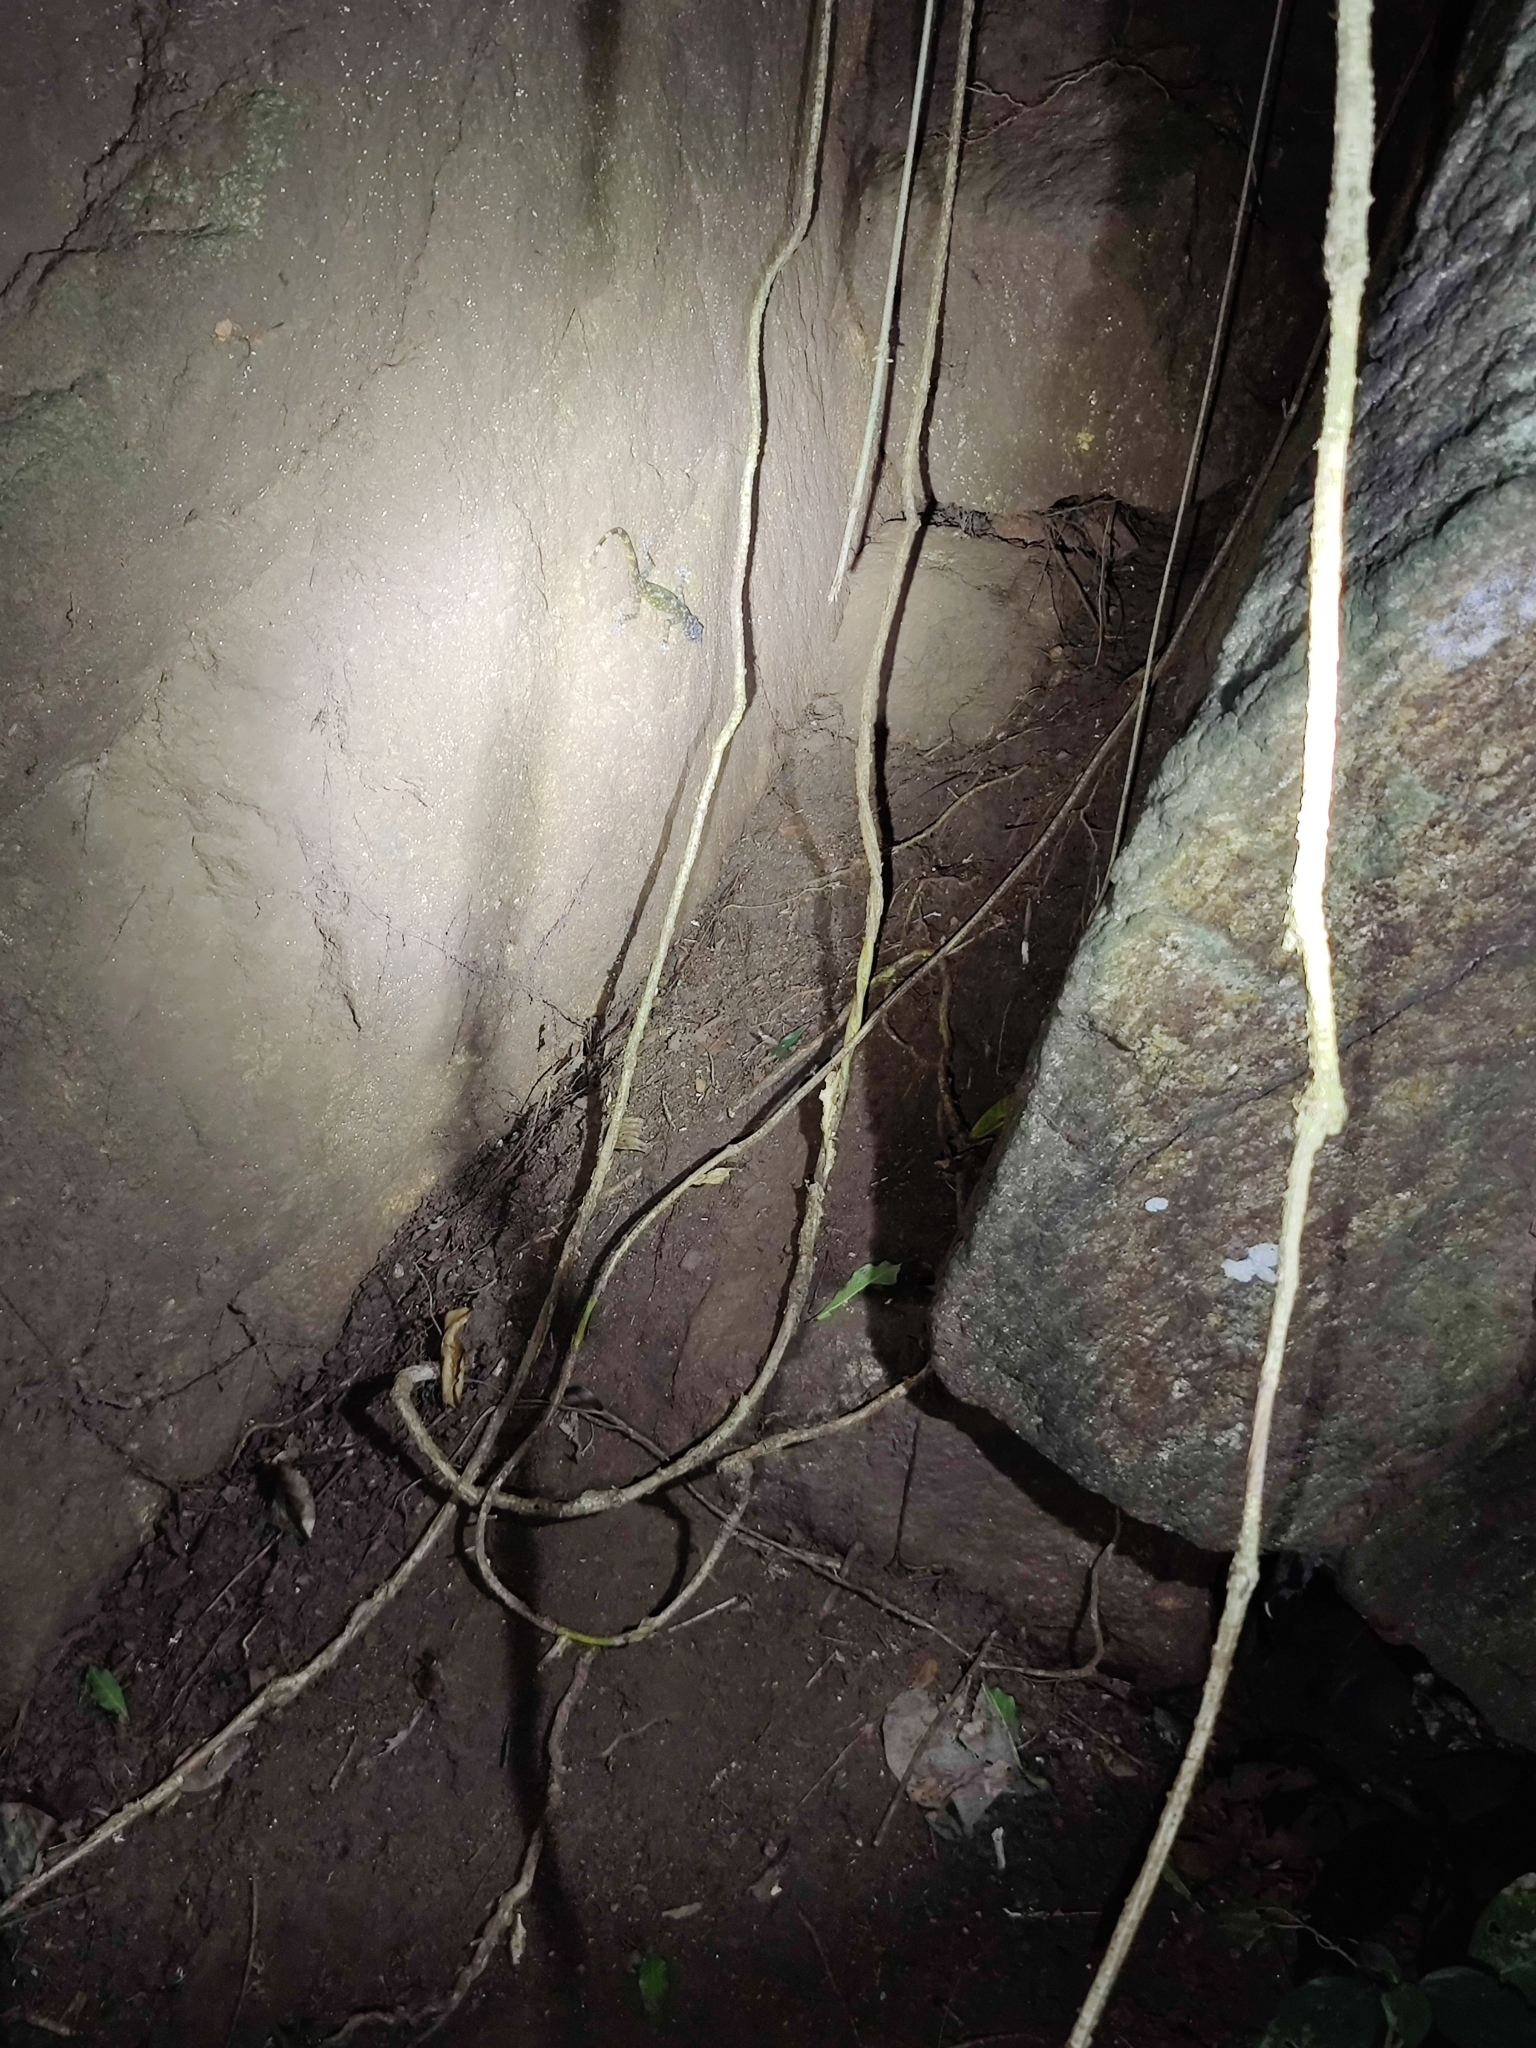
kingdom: Animalia
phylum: Chordata
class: Squamata
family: Gekkonidae
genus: Calodactylodes
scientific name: Calodactylodes aureus
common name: Indian golden gecko
